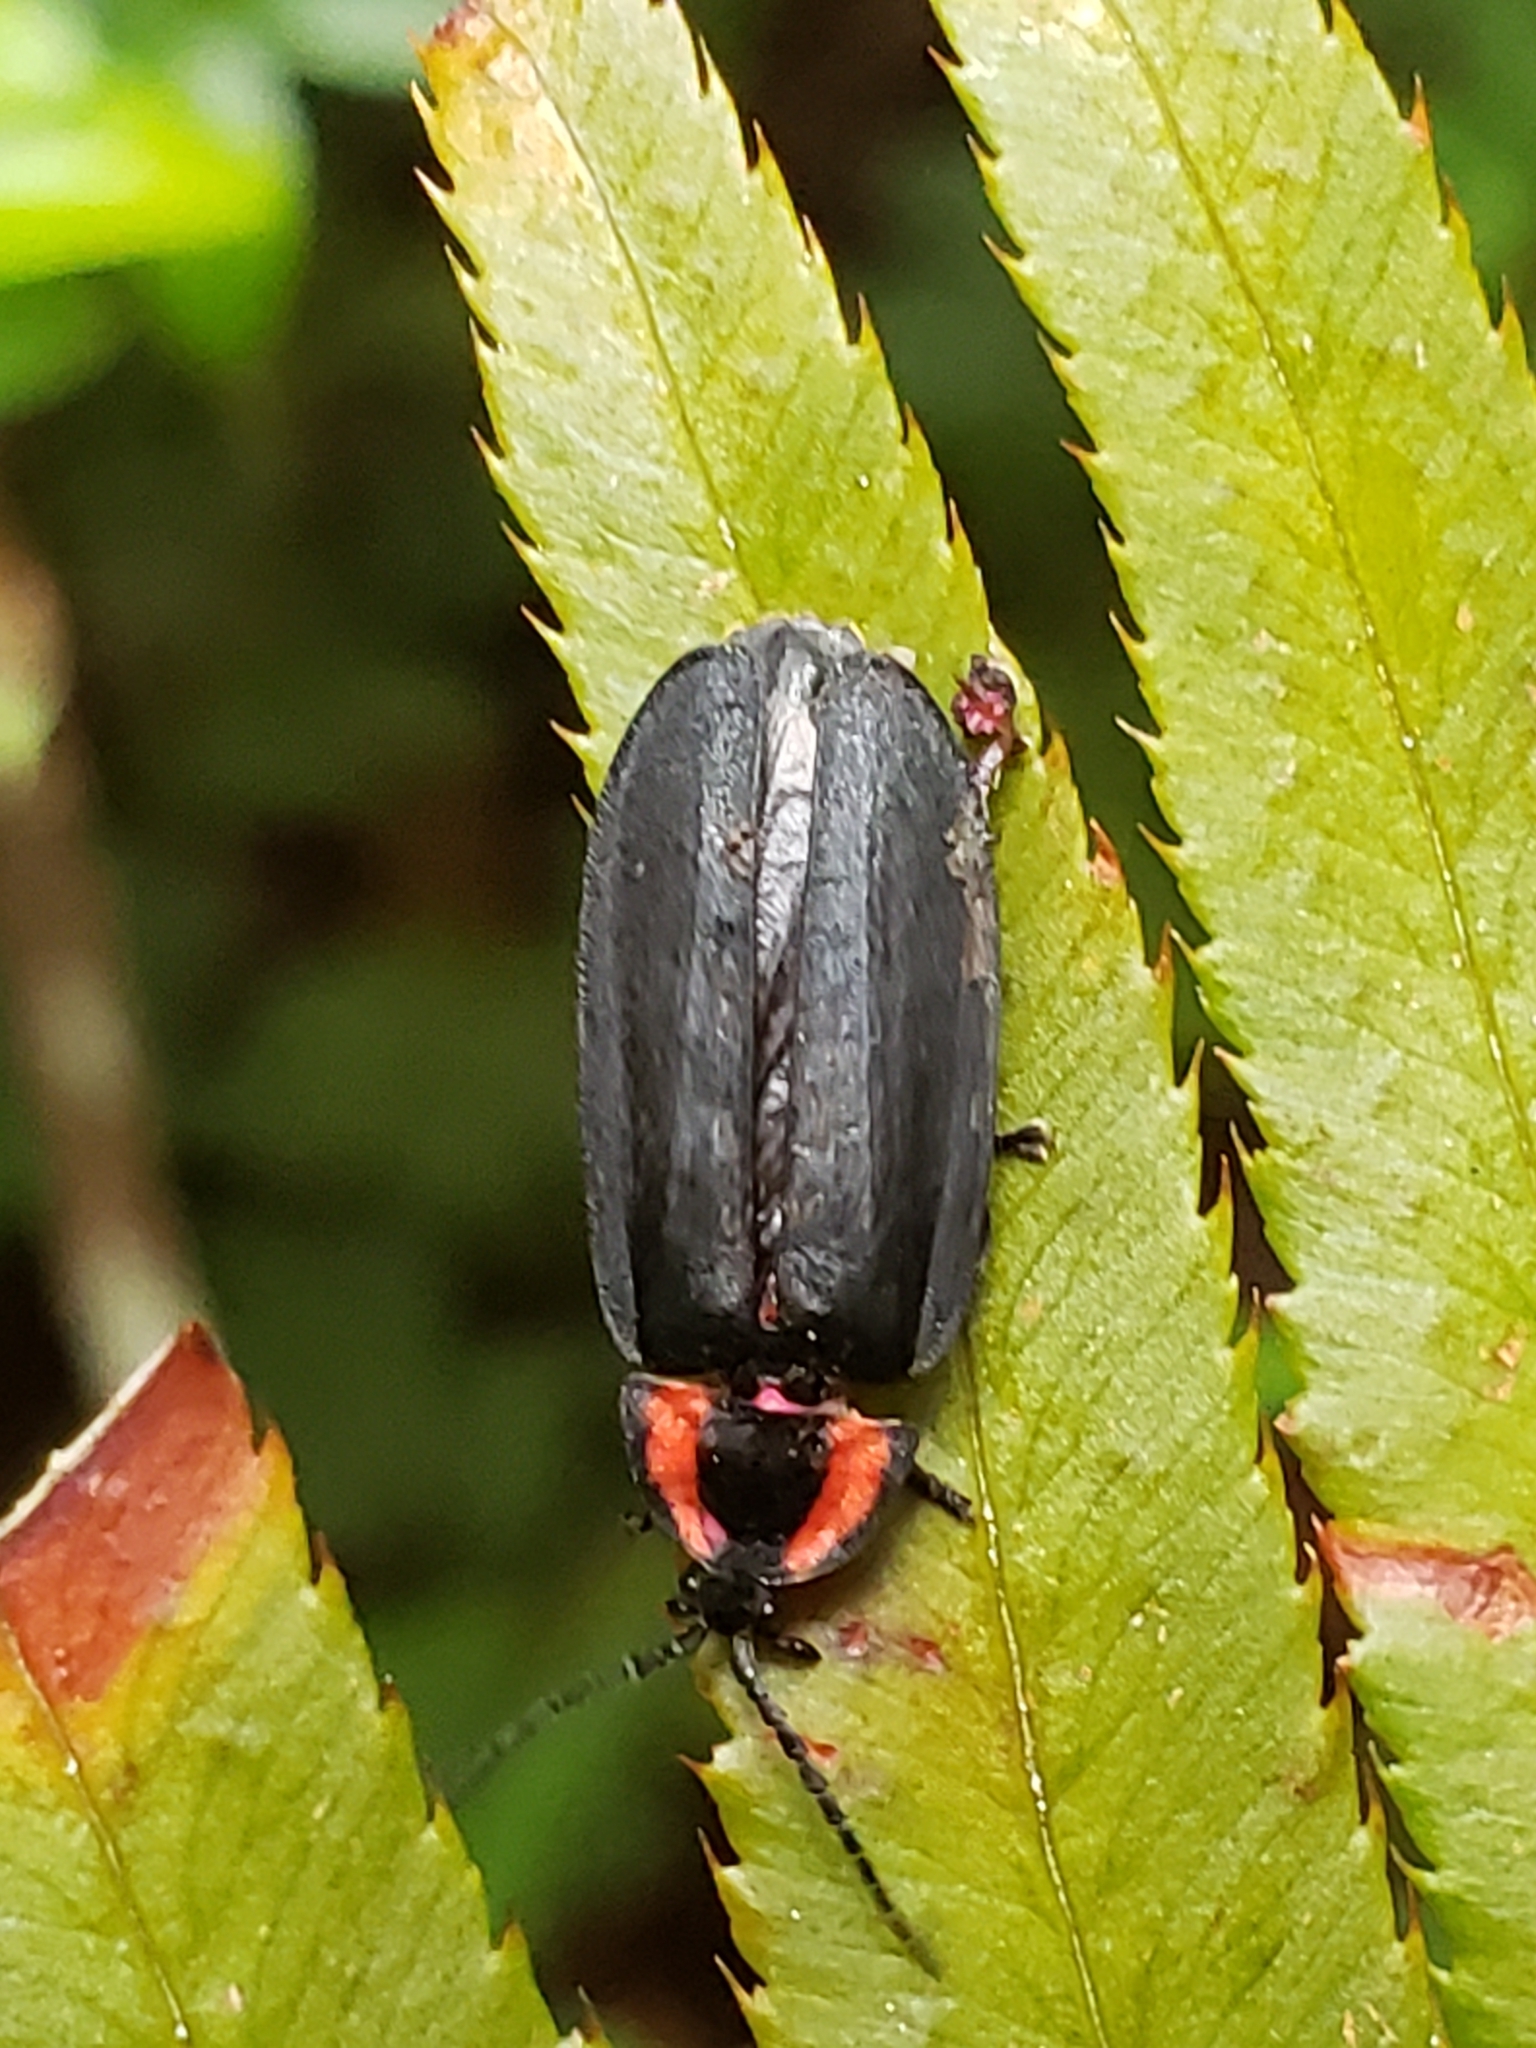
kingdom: Animalia
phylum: Arthropoda
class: Insecta
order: Coleoptera
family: Lampyridae
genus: Photinus
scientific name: Photinus californica
